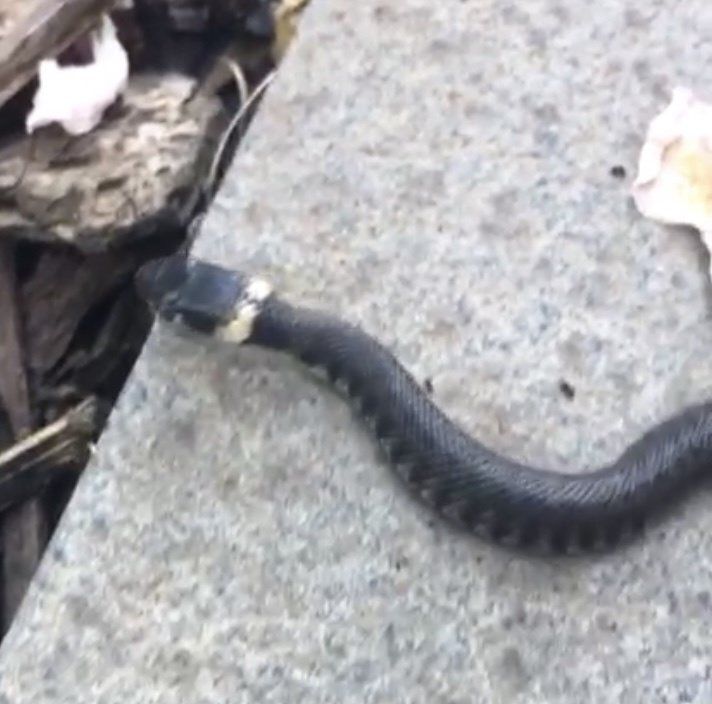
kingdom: Animalia
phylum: Chordata
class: Squamata
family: Colubridae
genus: Natrix
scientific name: Natrix helvetica
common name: Banded grass snake
